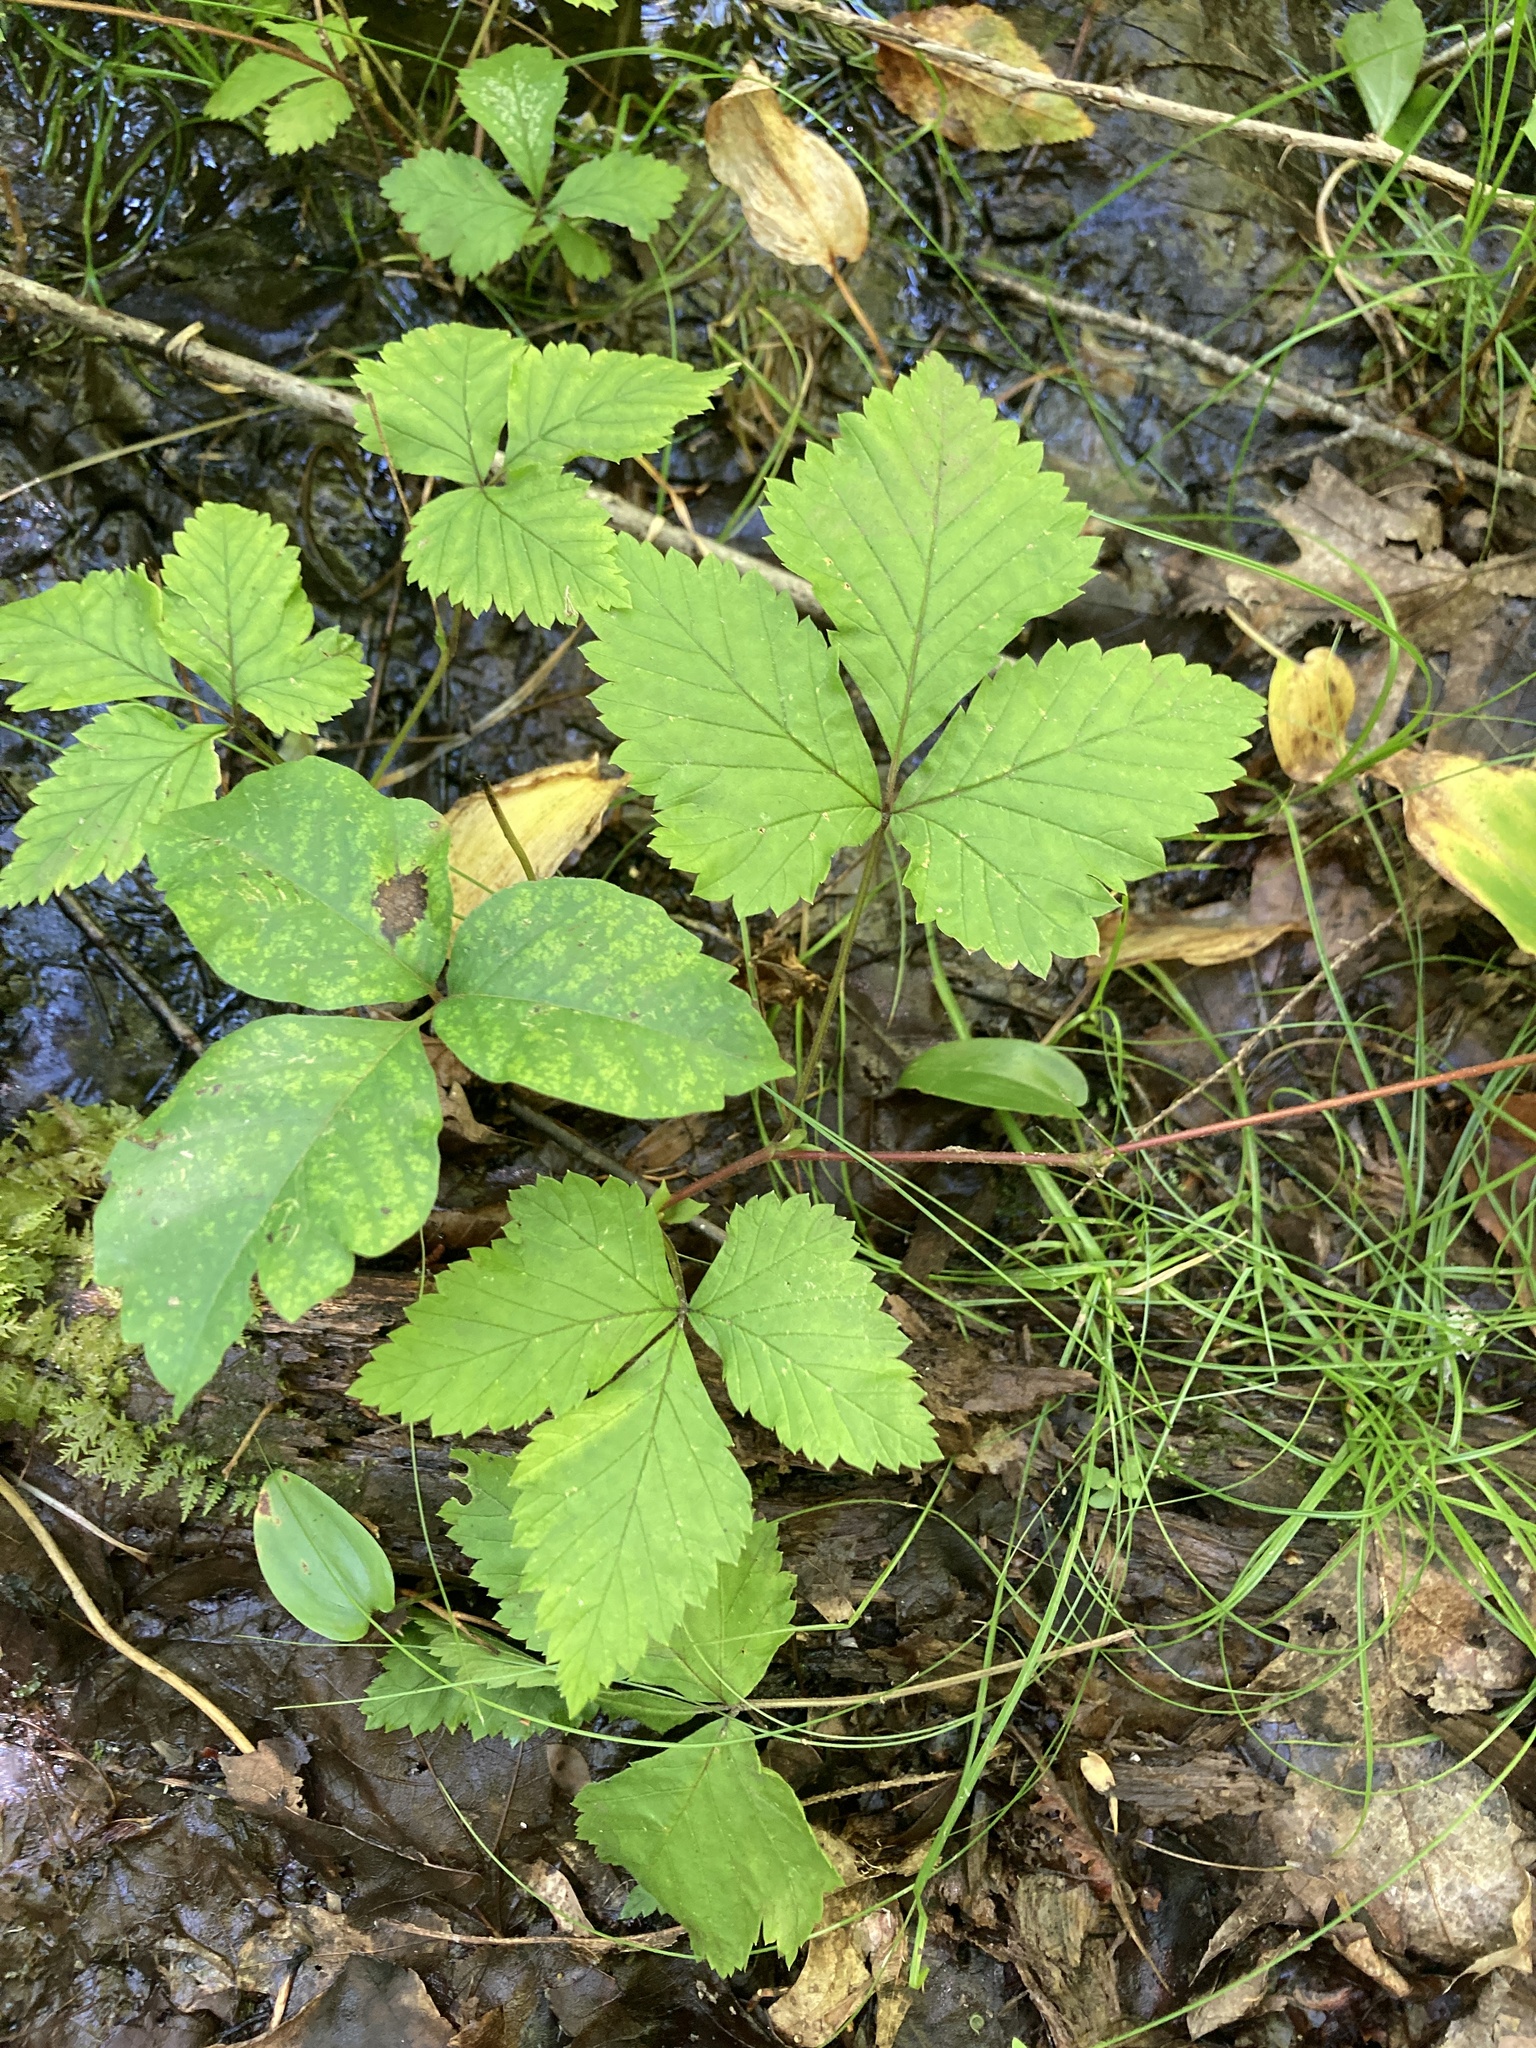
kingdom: Plantae
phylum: Tracheophyta
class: Magnoliopsida
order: Rosales
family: Rosaceae
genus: Rubus
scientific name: Rubus pubescens
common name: Dwarf raspberry
